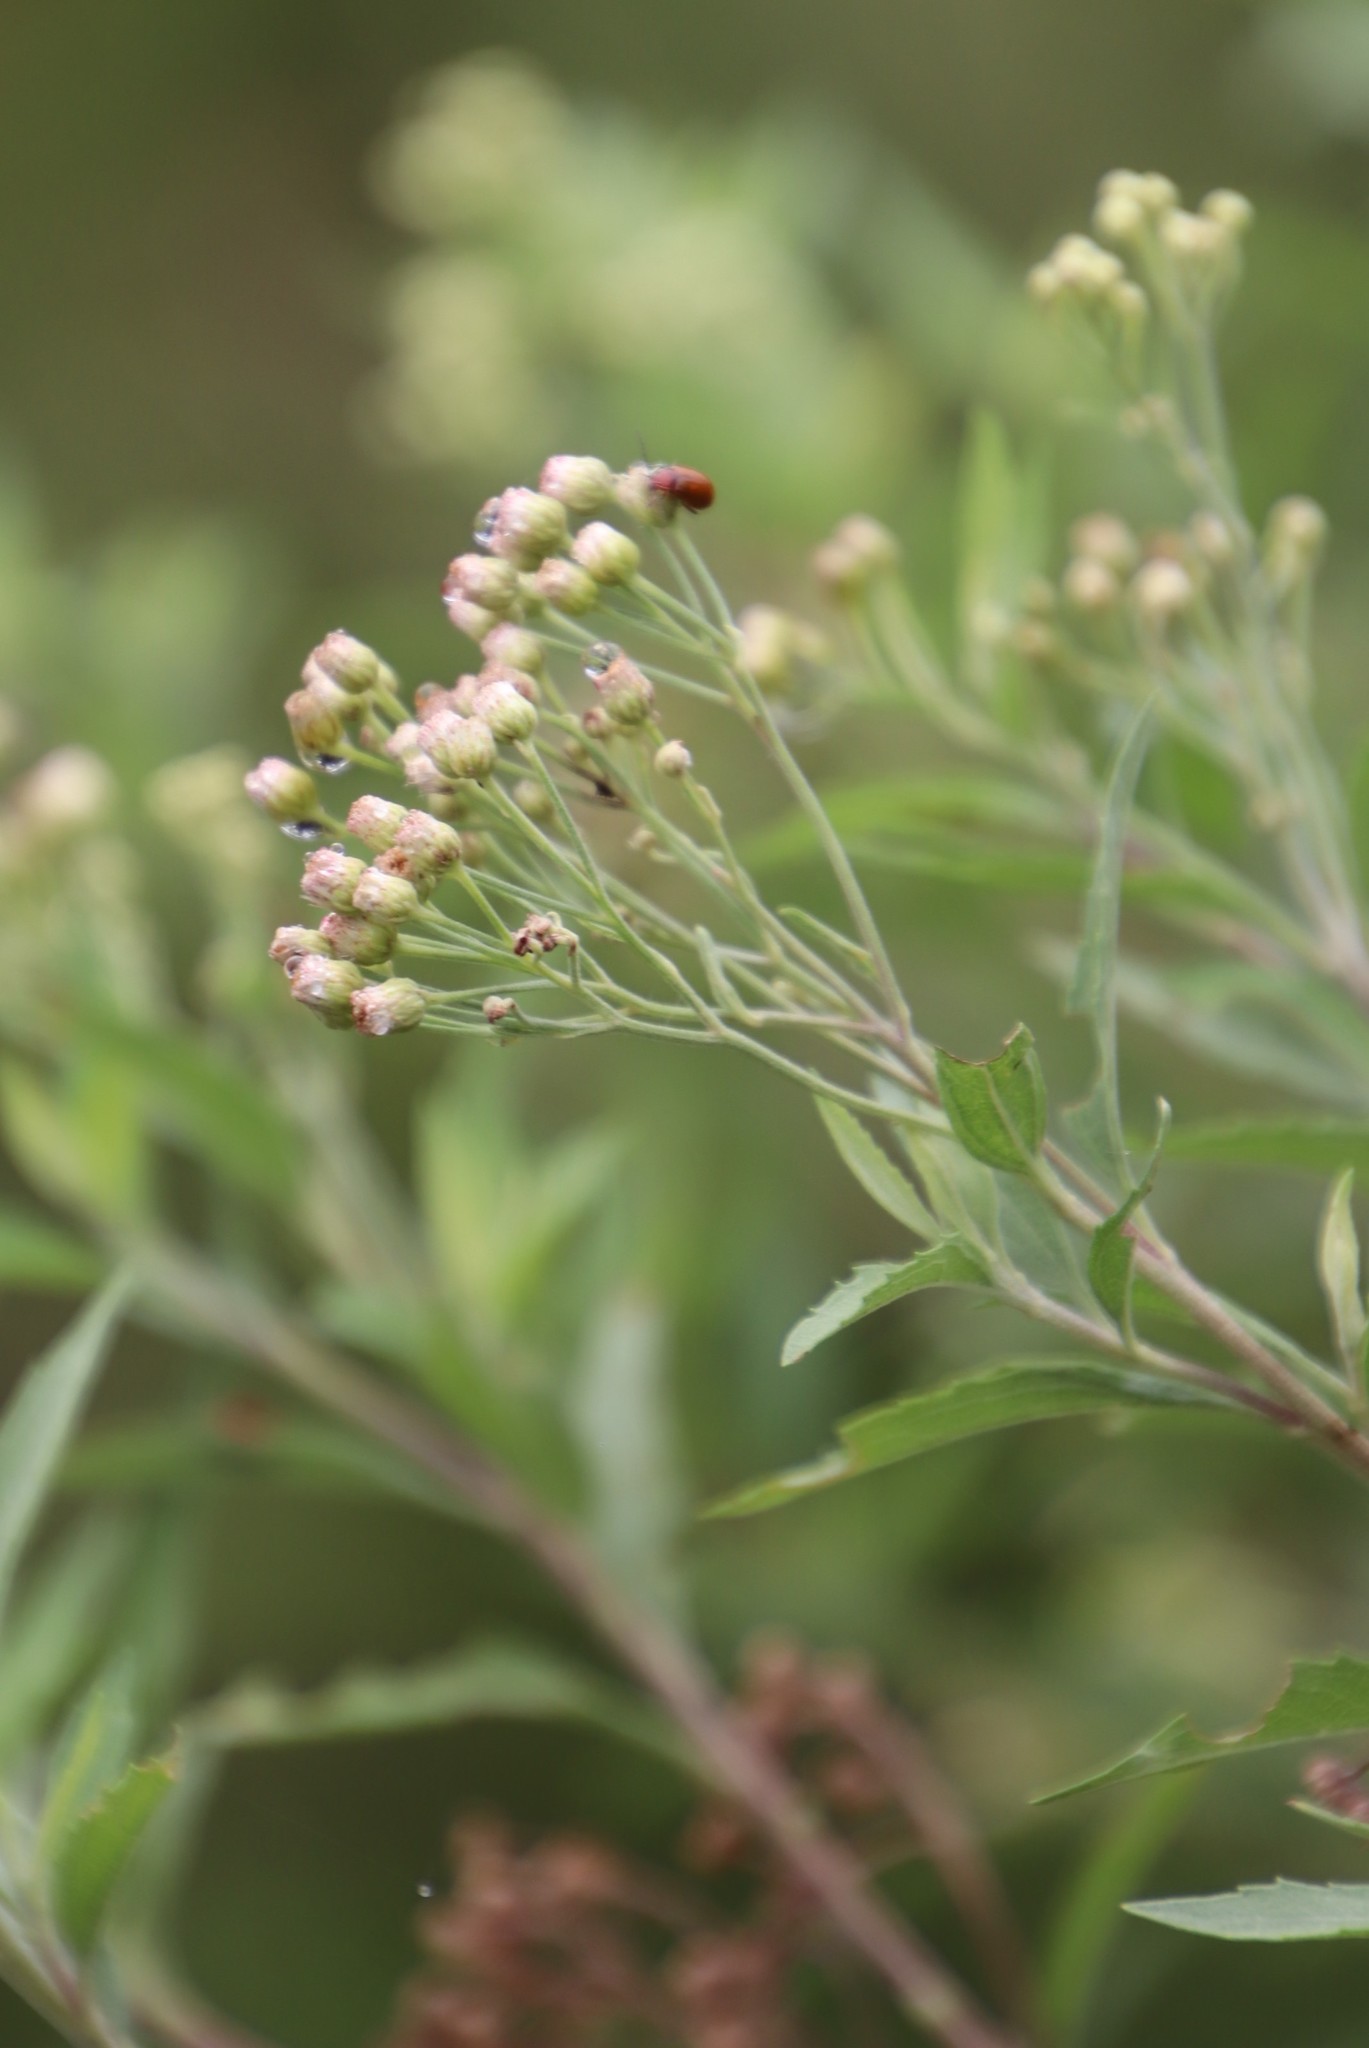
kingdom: Plantae
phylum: Tracheophyta
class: Magnoliopsida
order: Asterales
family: Asteraceae
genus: Nidorella
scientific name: Nidorella ivifolia
